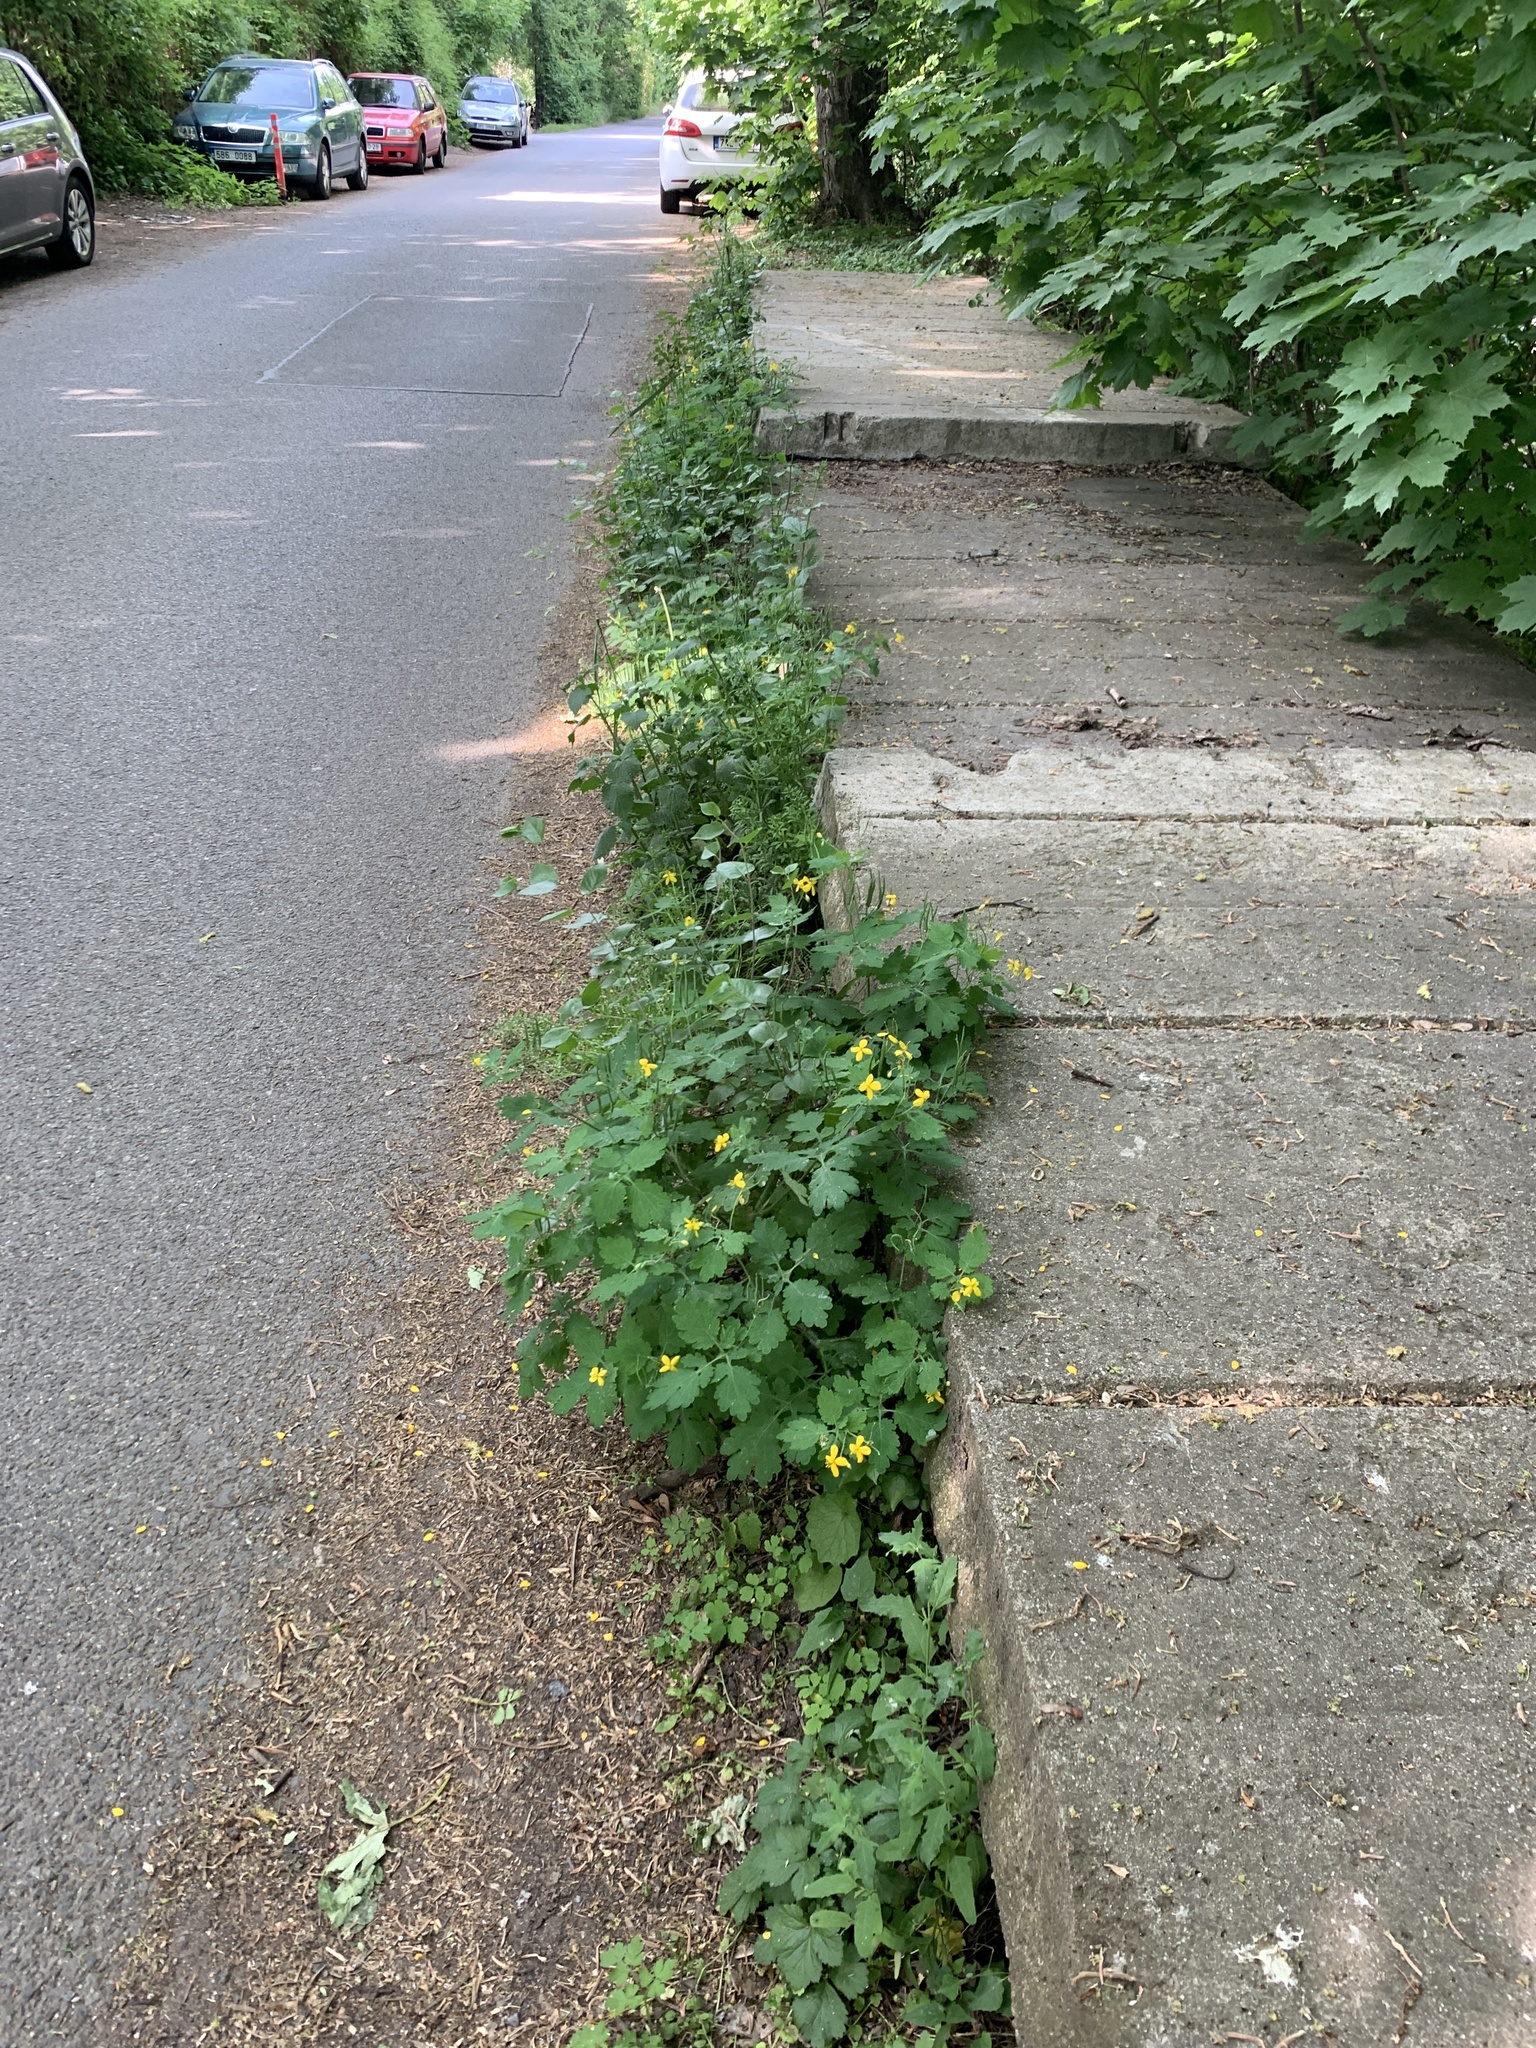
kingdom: Plantae
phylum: Tracheophyta
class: Magnoliopsida
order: Ranunculales
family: Papaveraceae
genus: Chelidonium
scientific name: Chelidonium majus
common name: Greater celandine
